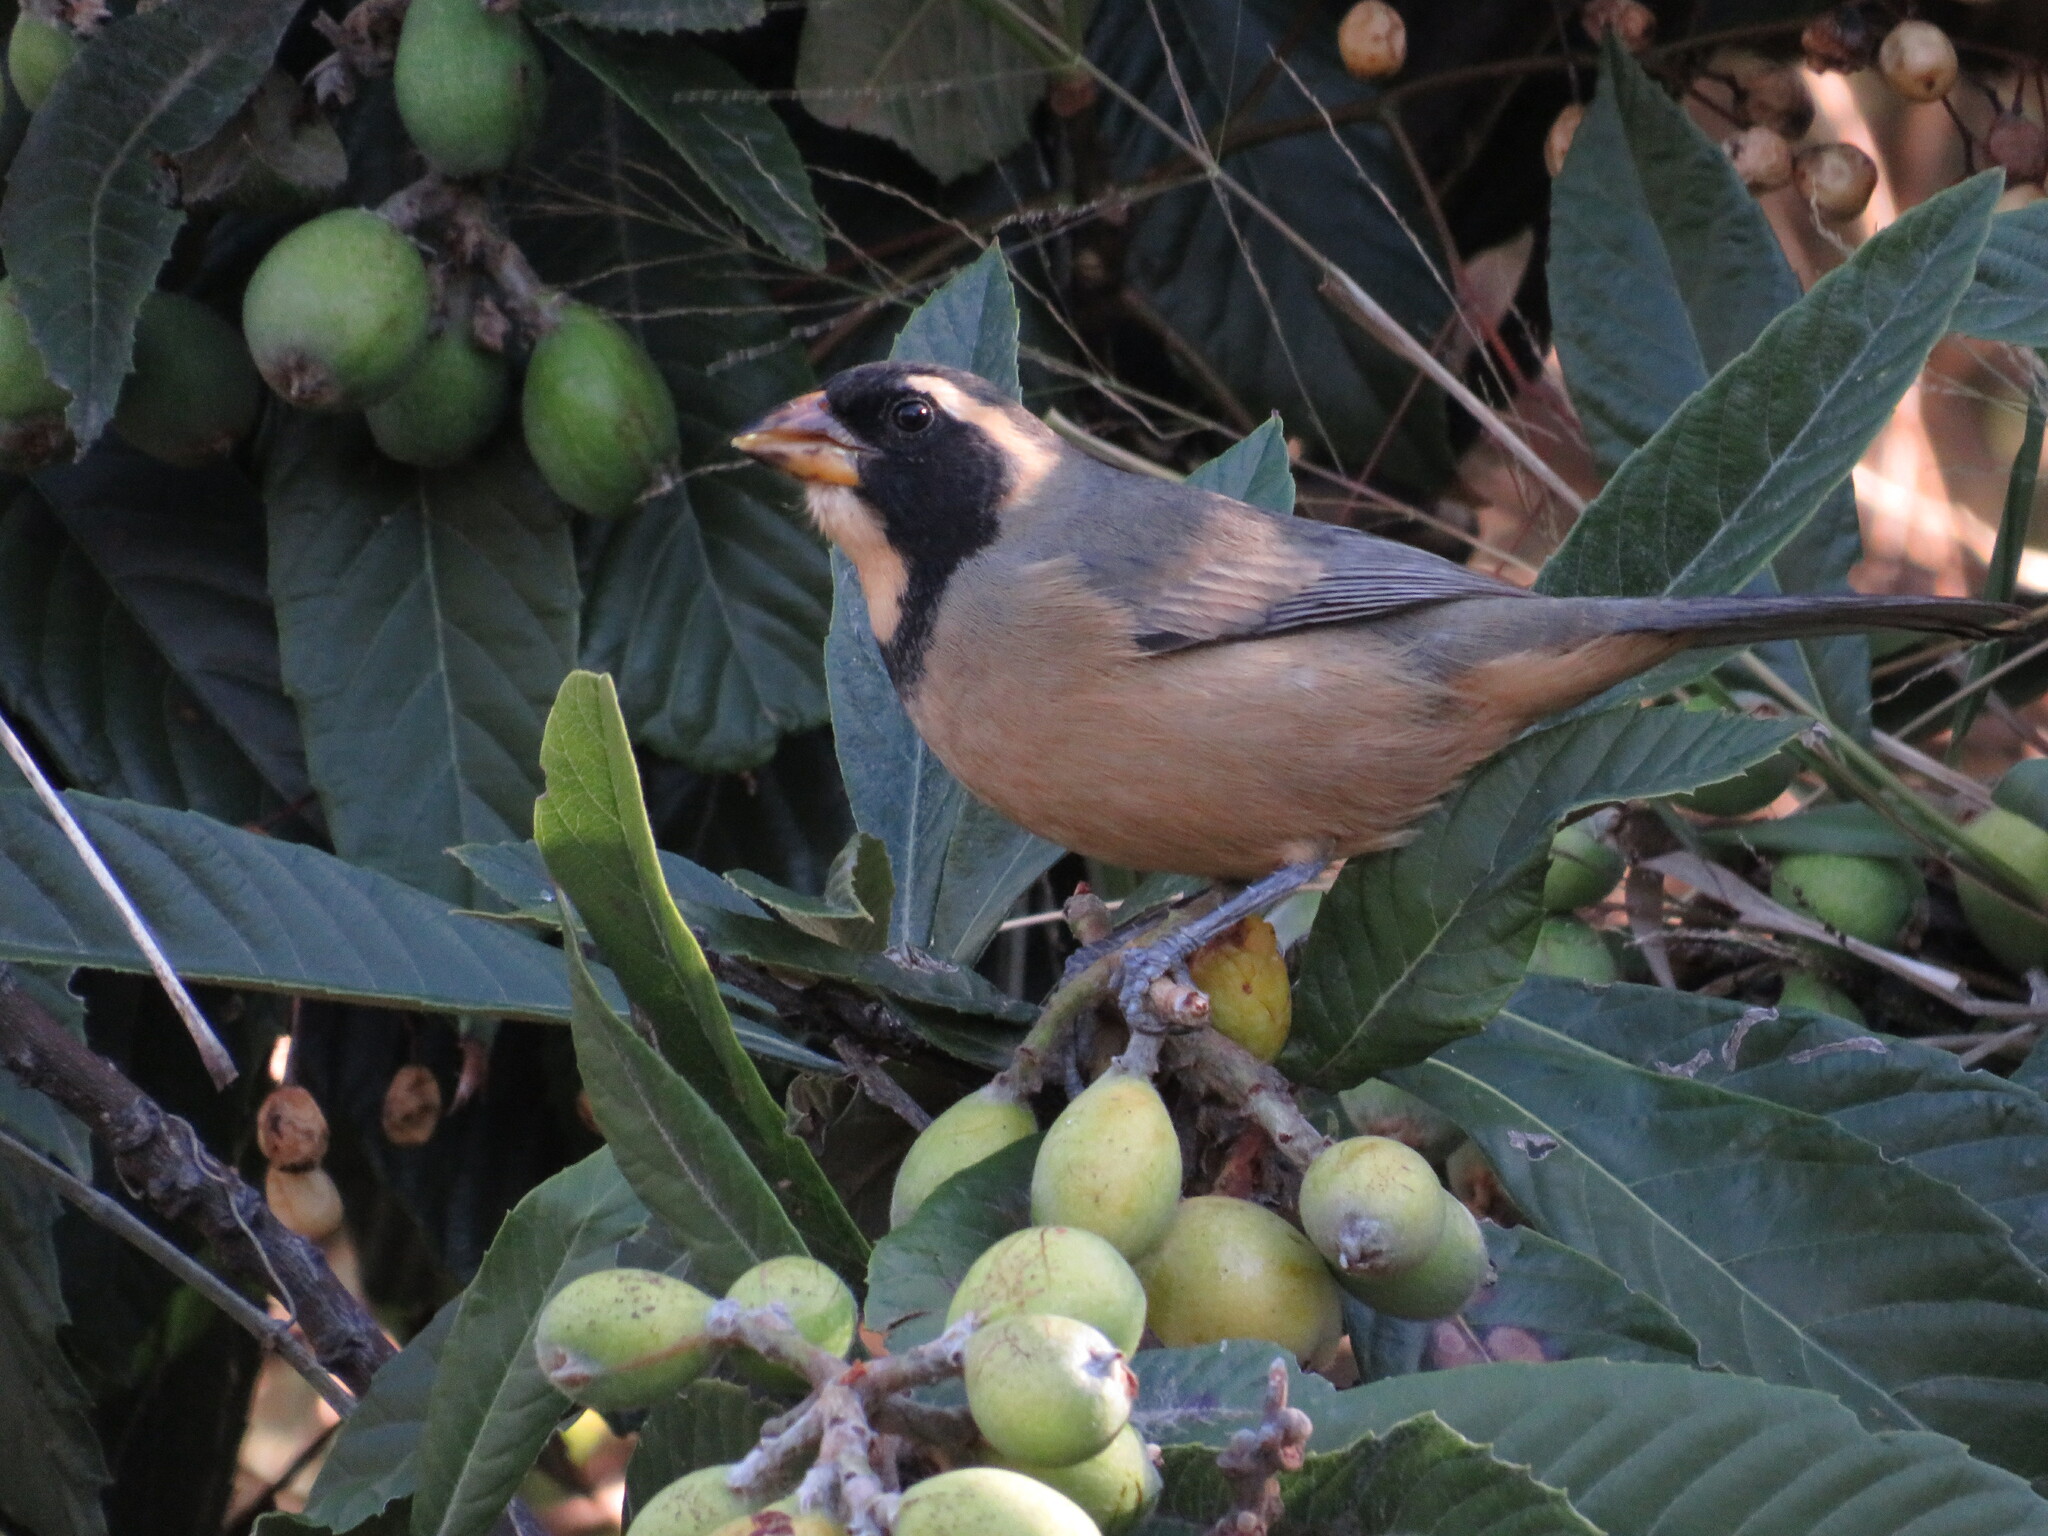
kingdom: Animalia
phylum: Chordata
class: Aves
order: Passeriformes
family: Thraupidae
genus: Saltator
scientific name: Saltator aurantiirostris
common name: Golden-billed saltator
